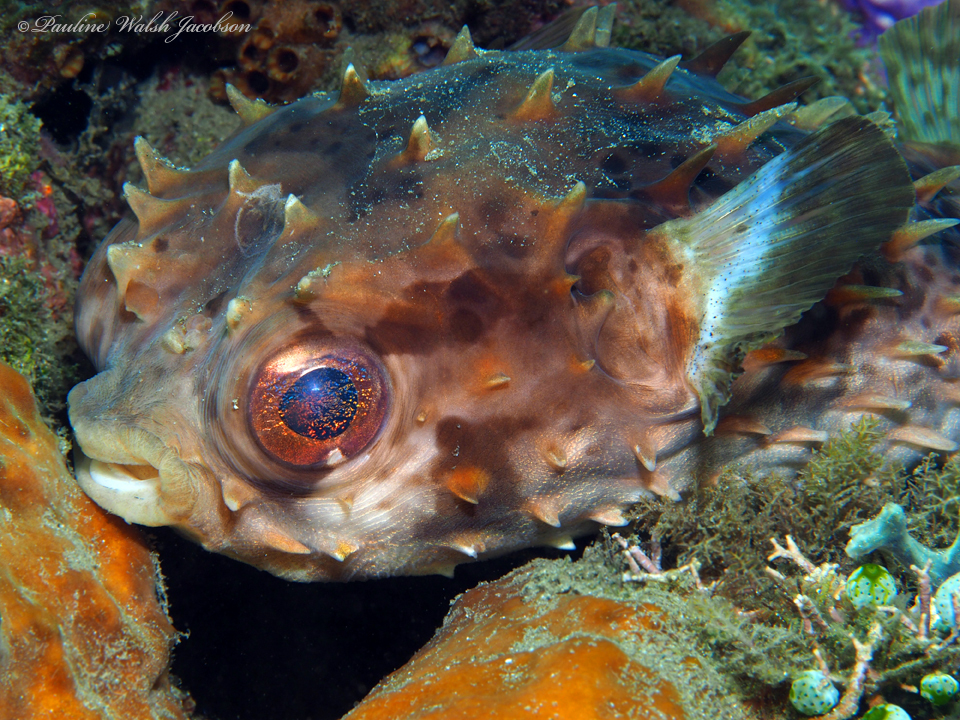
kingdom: Animalia
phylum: Chordata
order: Tetraodontiformes
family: Diodontidae
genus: Cyclichthys
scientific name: Cyclichthys orbicularis
